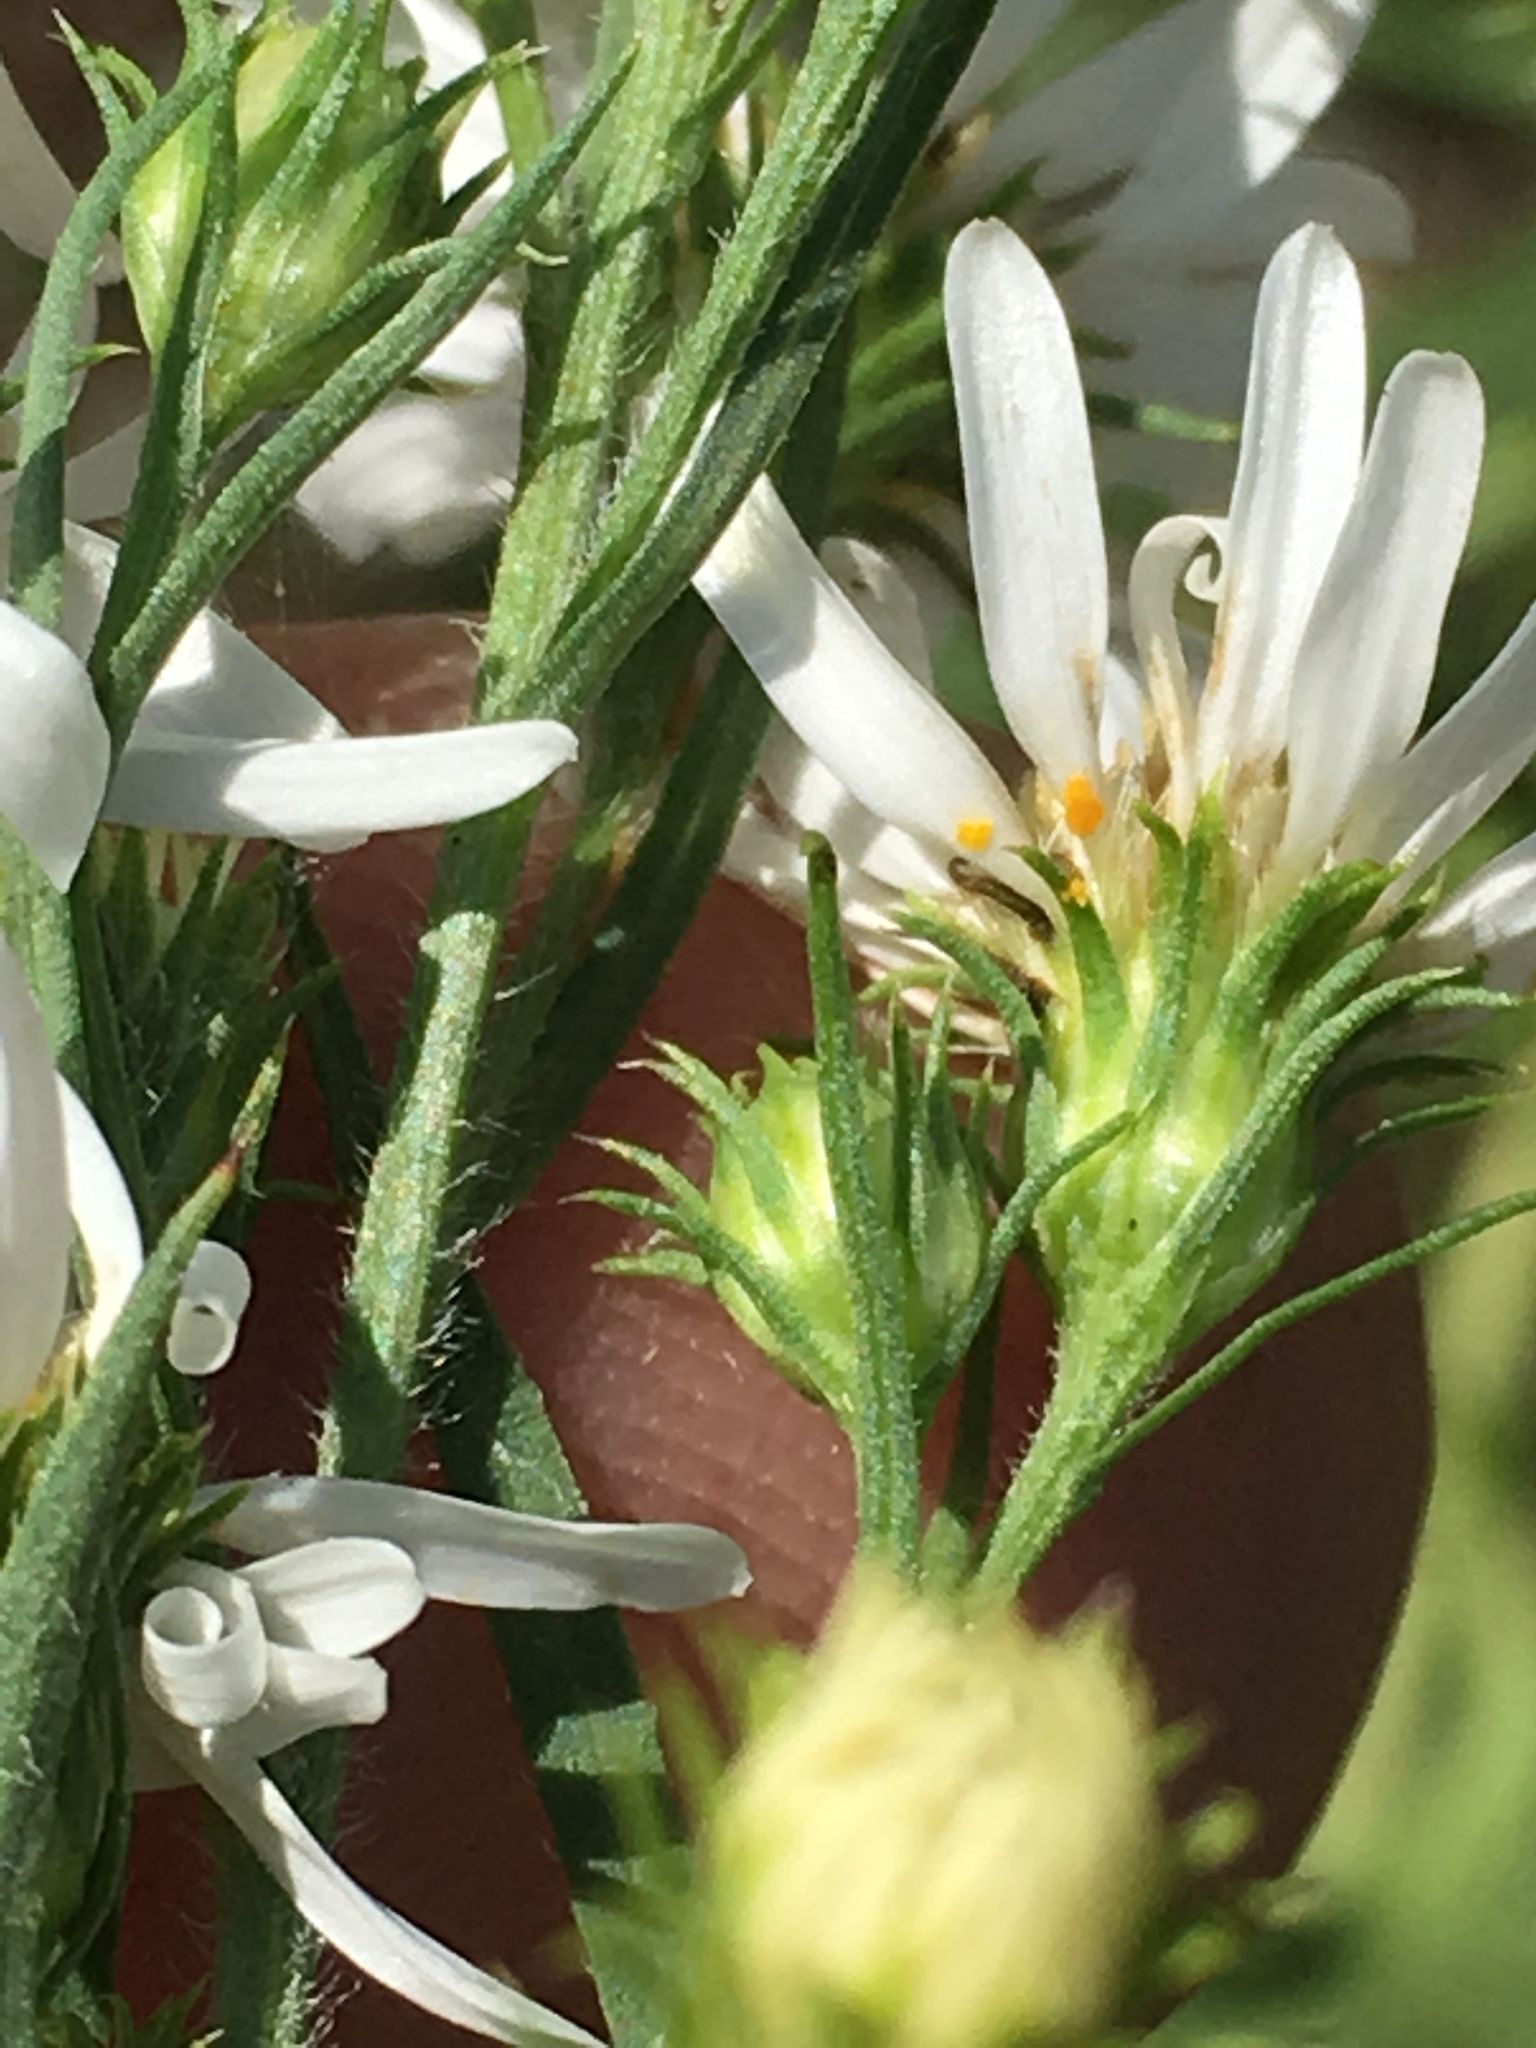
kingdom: Plantae
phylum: Tracheophyta
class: Magnoliopsida
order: Asterales
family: Asteraceae
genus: Symphyotrichum
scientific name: Symphyotrichum pilosum
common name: Awl aster
